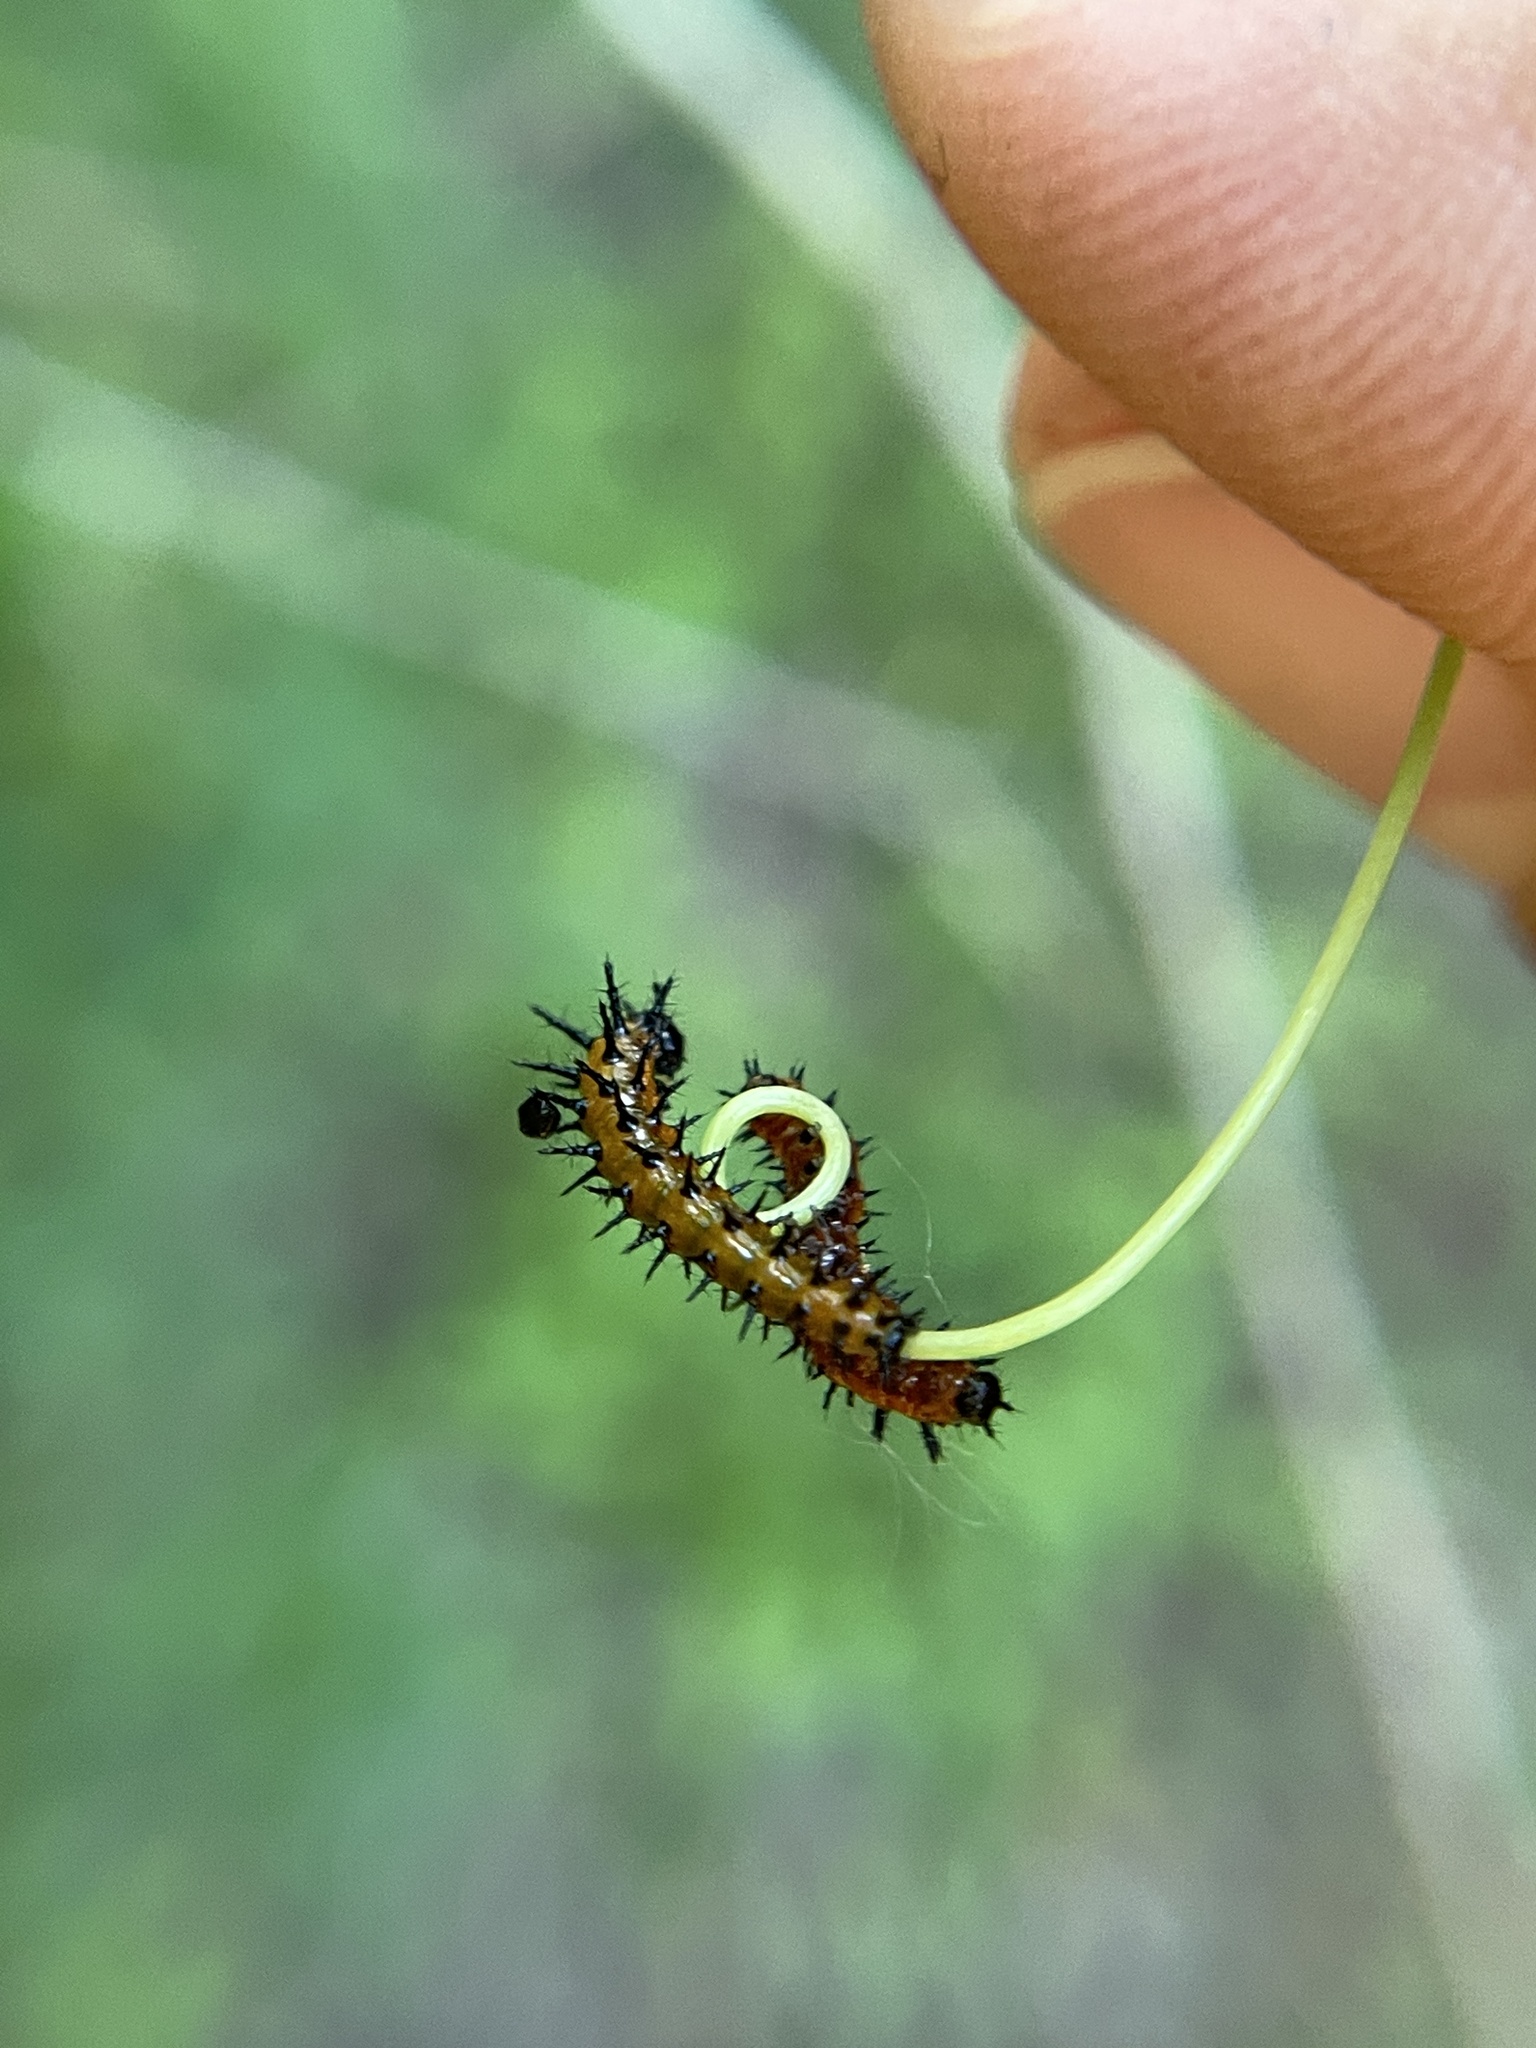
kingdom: Animalia
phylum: Arthropoda
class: Insecta
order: Lepidoptera
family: Nymphalidae
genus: Dione
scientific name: Dione vanillae
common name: Gulf fritillary
